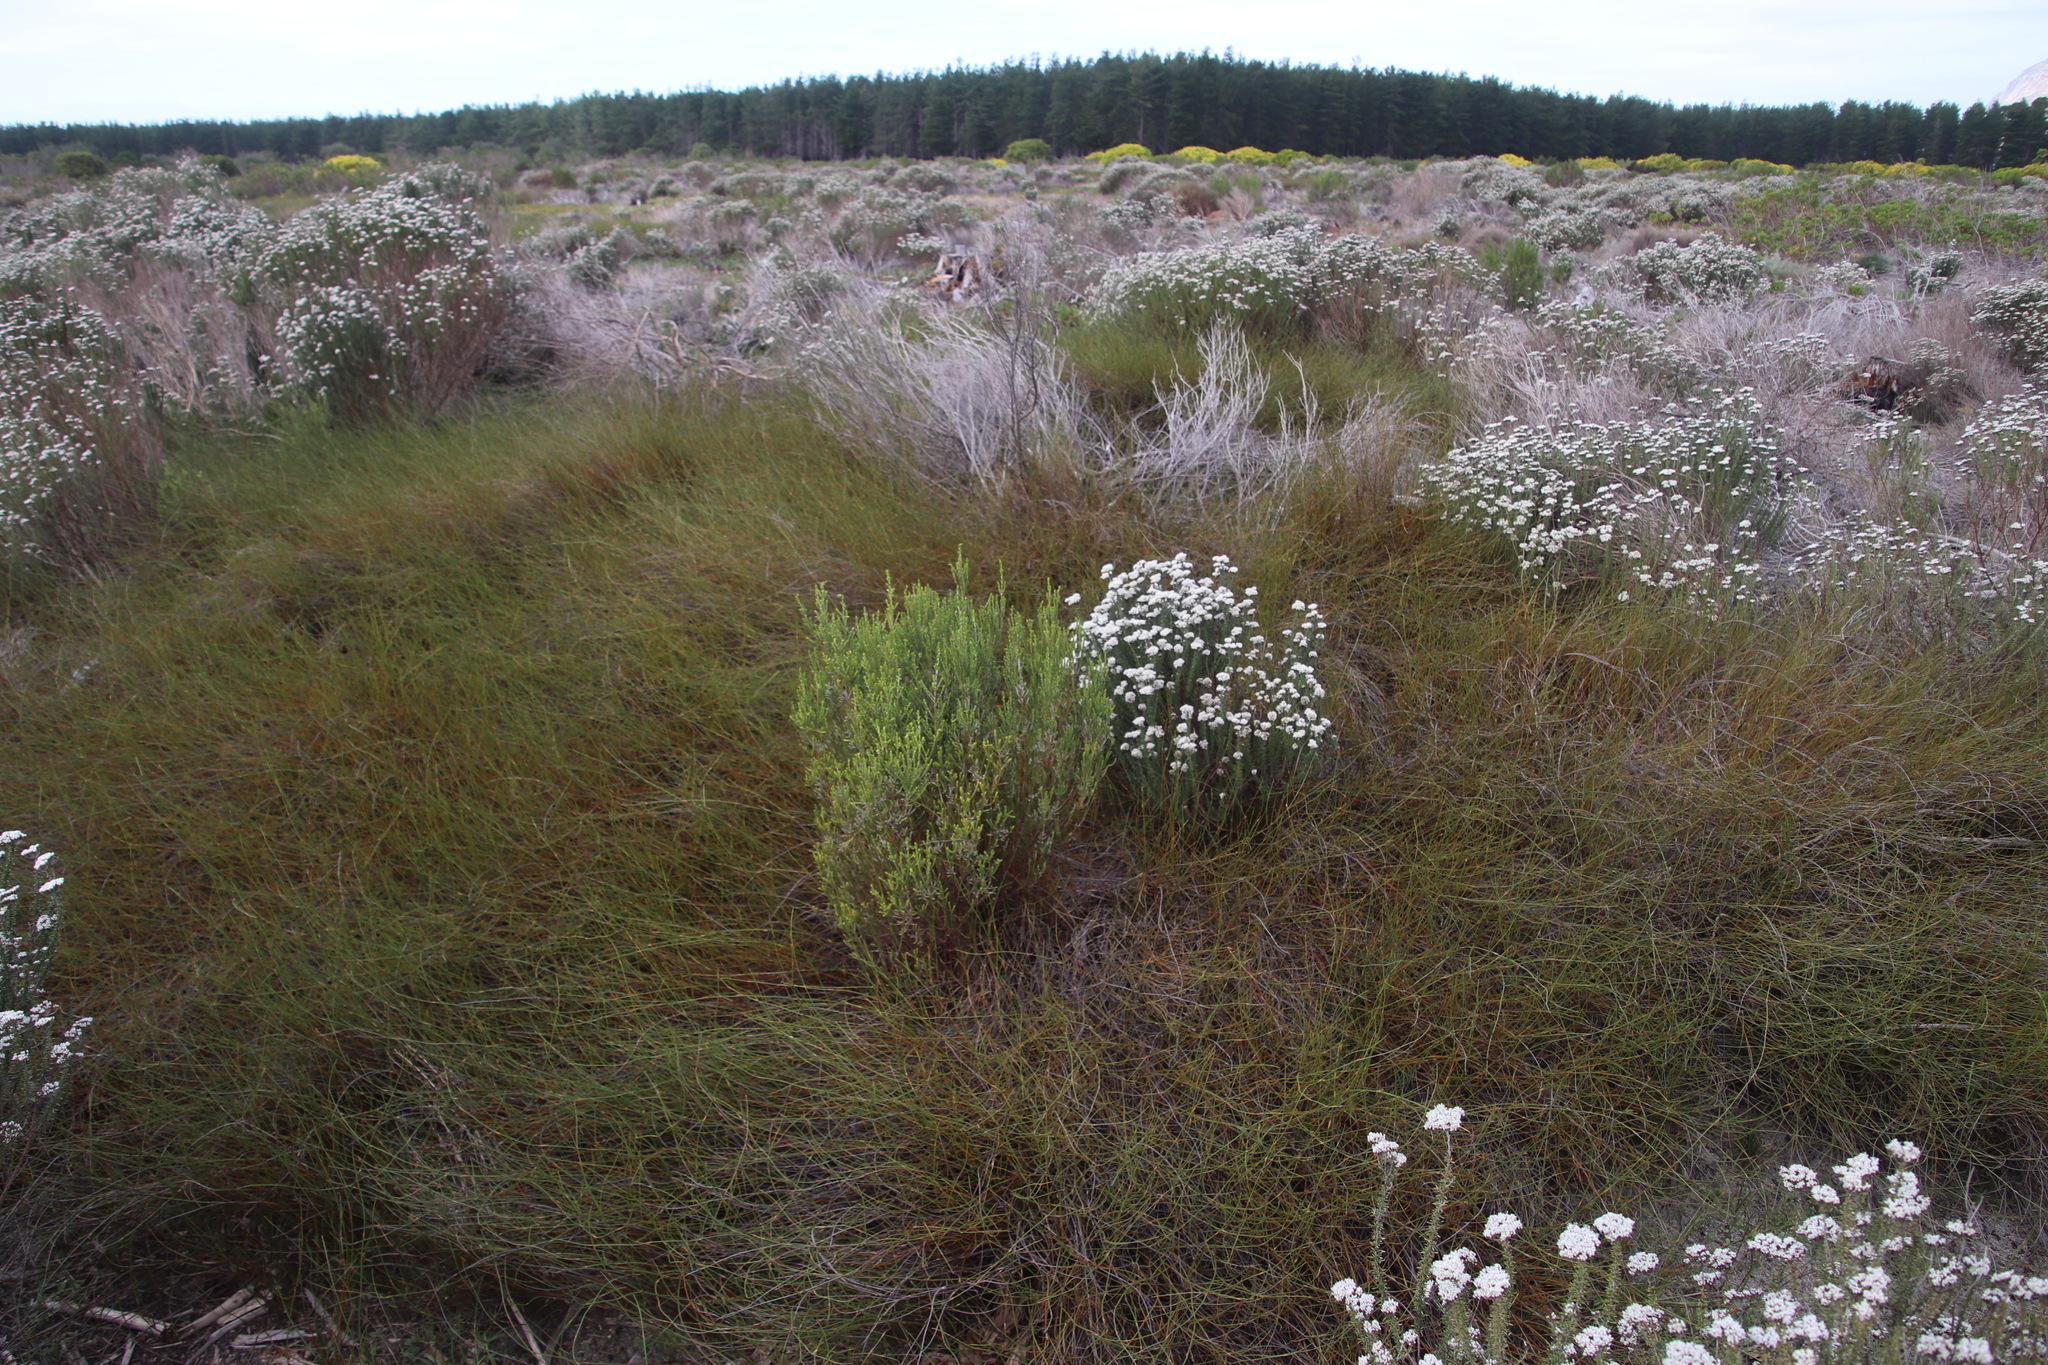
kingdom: Plantae
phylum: Tracheophyta
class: Magnoliopsida
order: Malvales
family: Thymelaeaceae
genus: Passerina
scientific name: Passerina corymbosa
